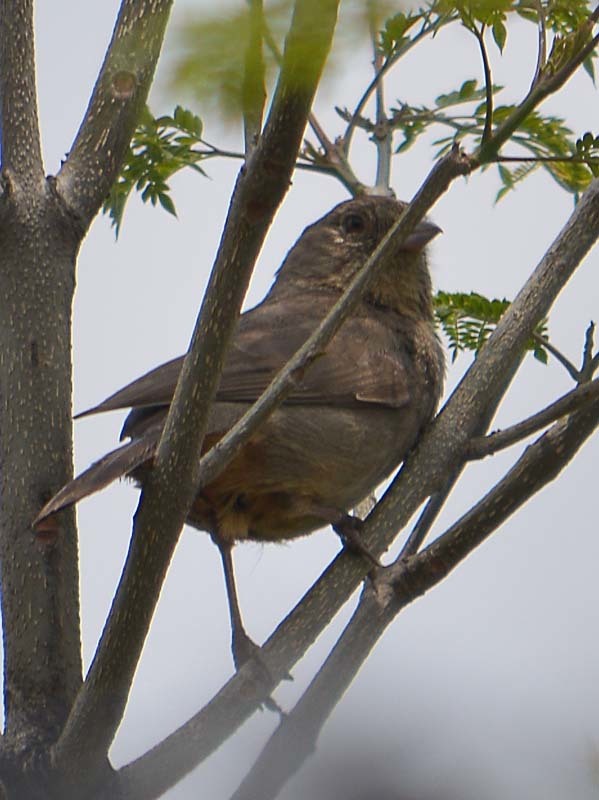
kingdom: Animalia
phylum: Chordata
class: Aves
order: Passeriformes
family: Passerellidae
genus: Melozone
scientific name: Melozone fusca
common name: Canyon towhee
